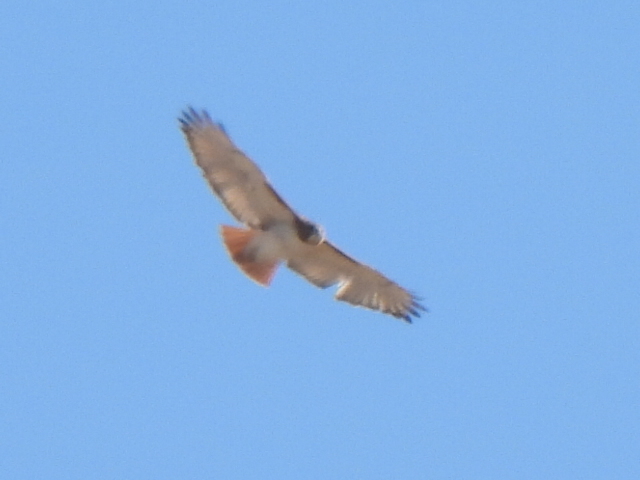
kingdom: Animalia
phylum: Chordata
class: Aves
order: Accipitriformes
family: Accipitridae
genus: Buteo
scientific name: Buteo jamaicensis
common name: Red-tailed hawk
